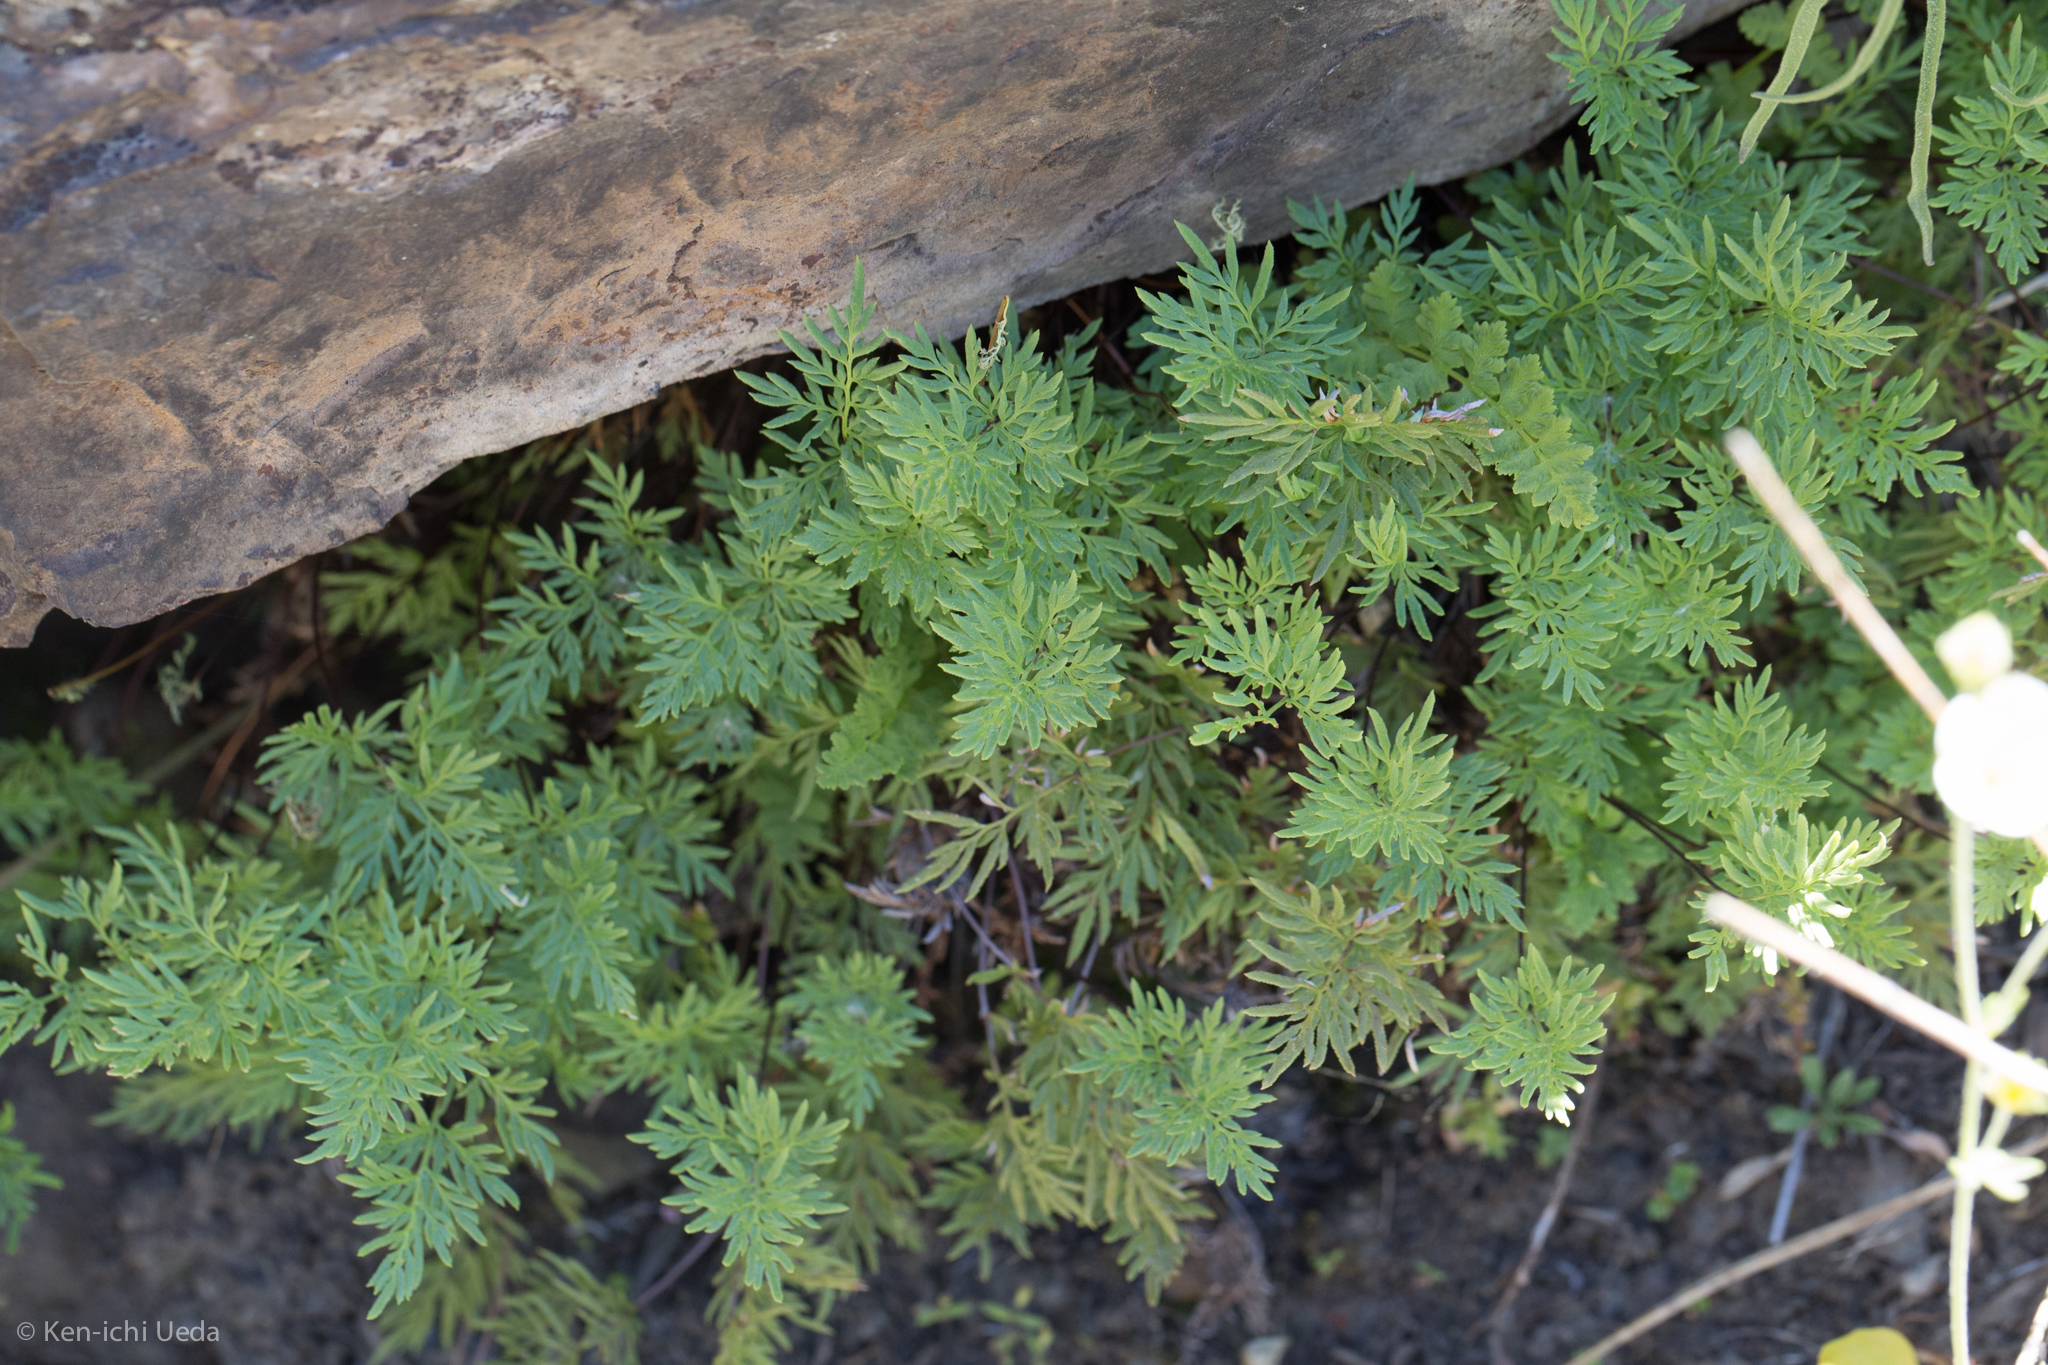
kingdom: Plantae
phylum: Tracheophyta
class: Polypodiopsida
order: Polypodiales
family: Pteridaceae
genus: Aspidotis
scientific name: Aspidotis densa
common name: Indian's dream
